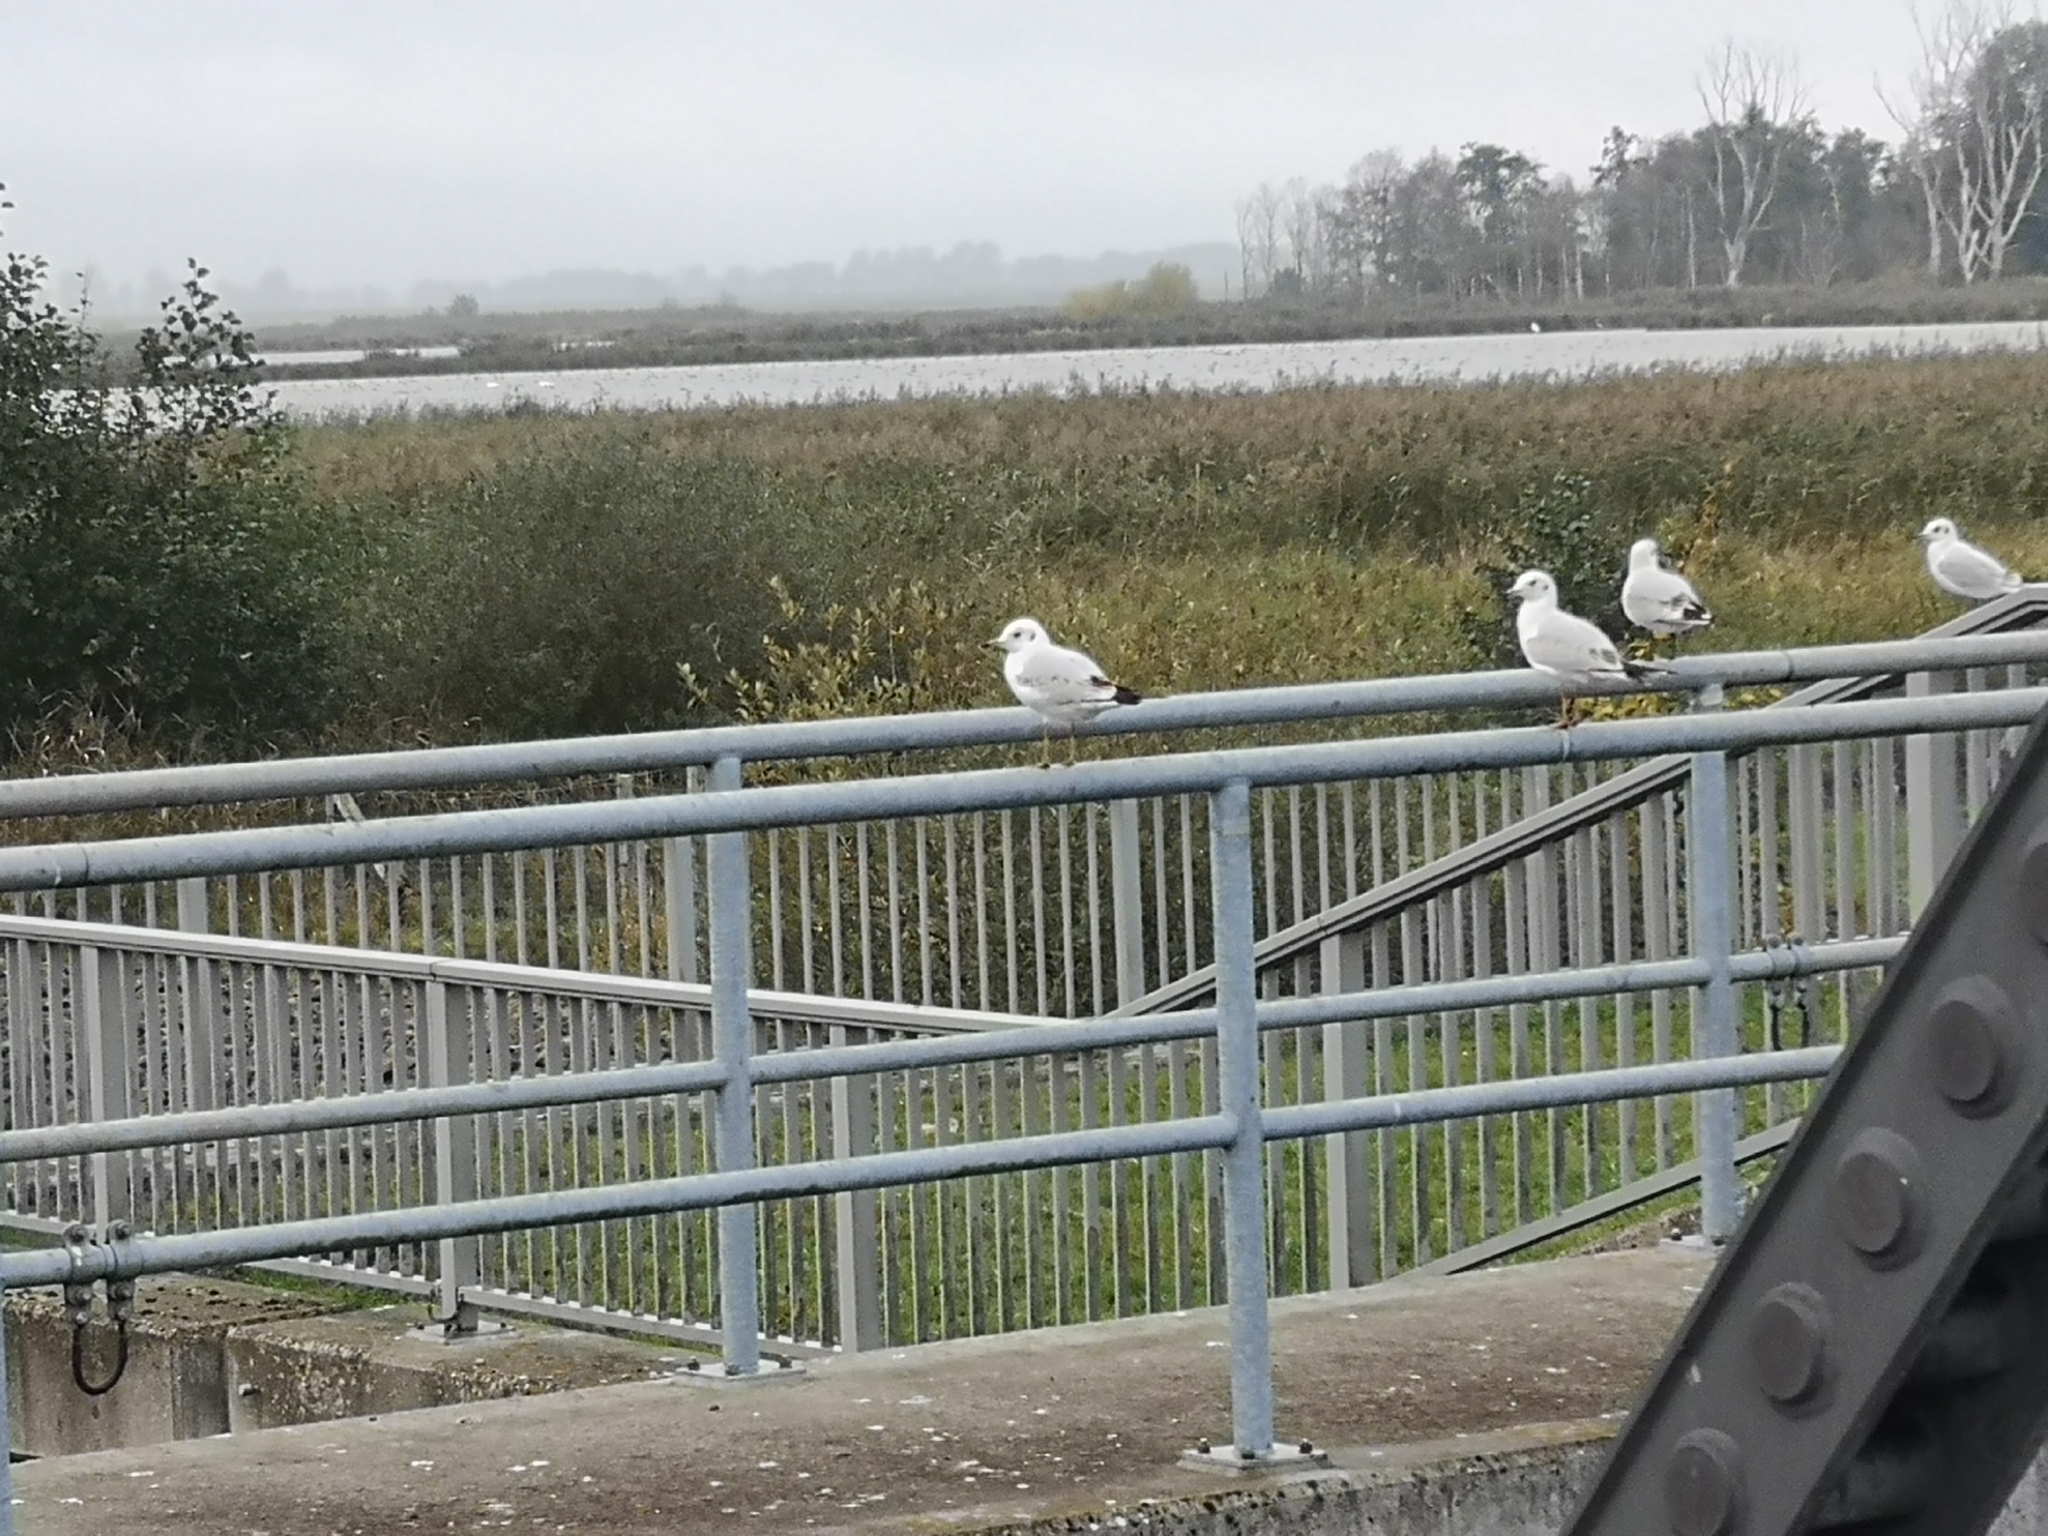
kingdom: Animalia
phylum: Chordata
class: Aves
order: Charadriiformes
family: Laridae
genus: Chroicocephalus
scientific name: Chroicocephalus ridibundus
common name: Black-headed gull
